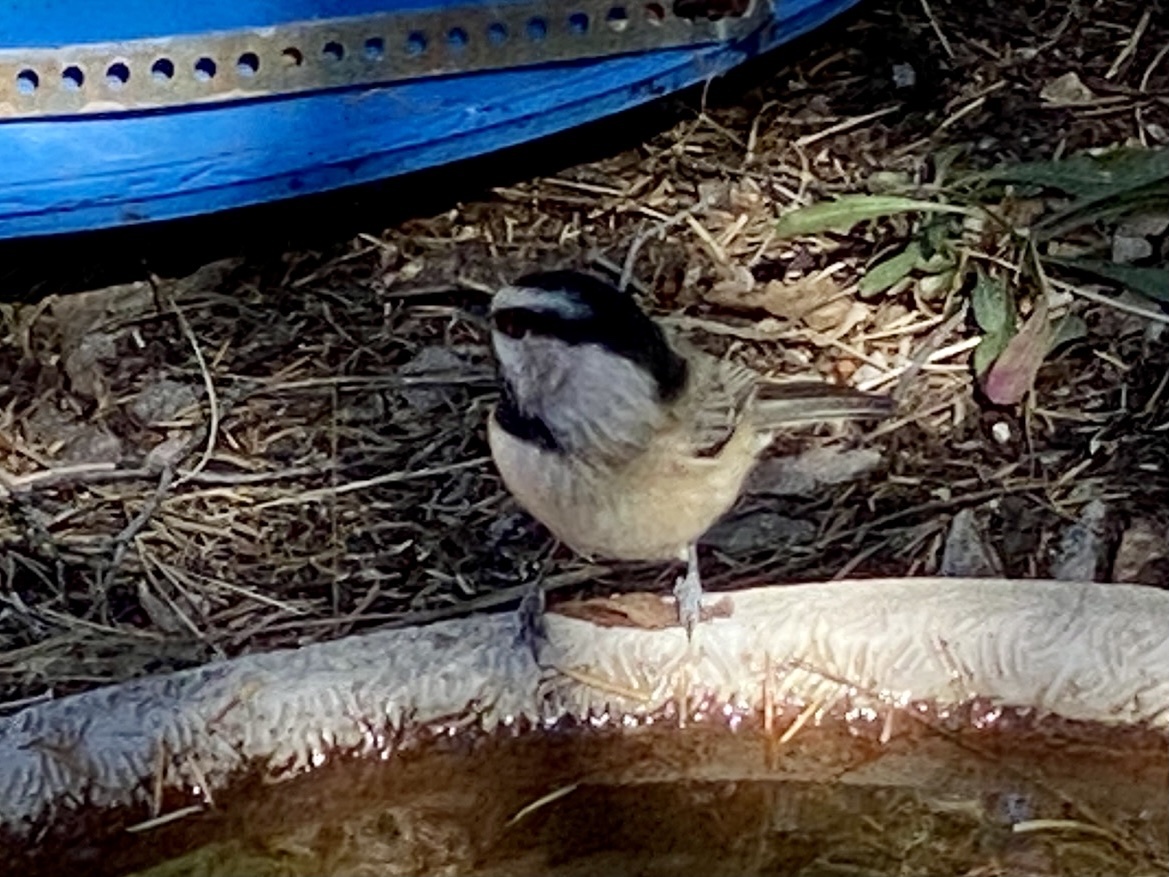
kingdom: Animalia
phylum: Chordata
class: Aves
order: Passeriformes
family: Paridae
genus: Poecile
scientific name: Poecile gambeli
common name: Mountain chickadee
